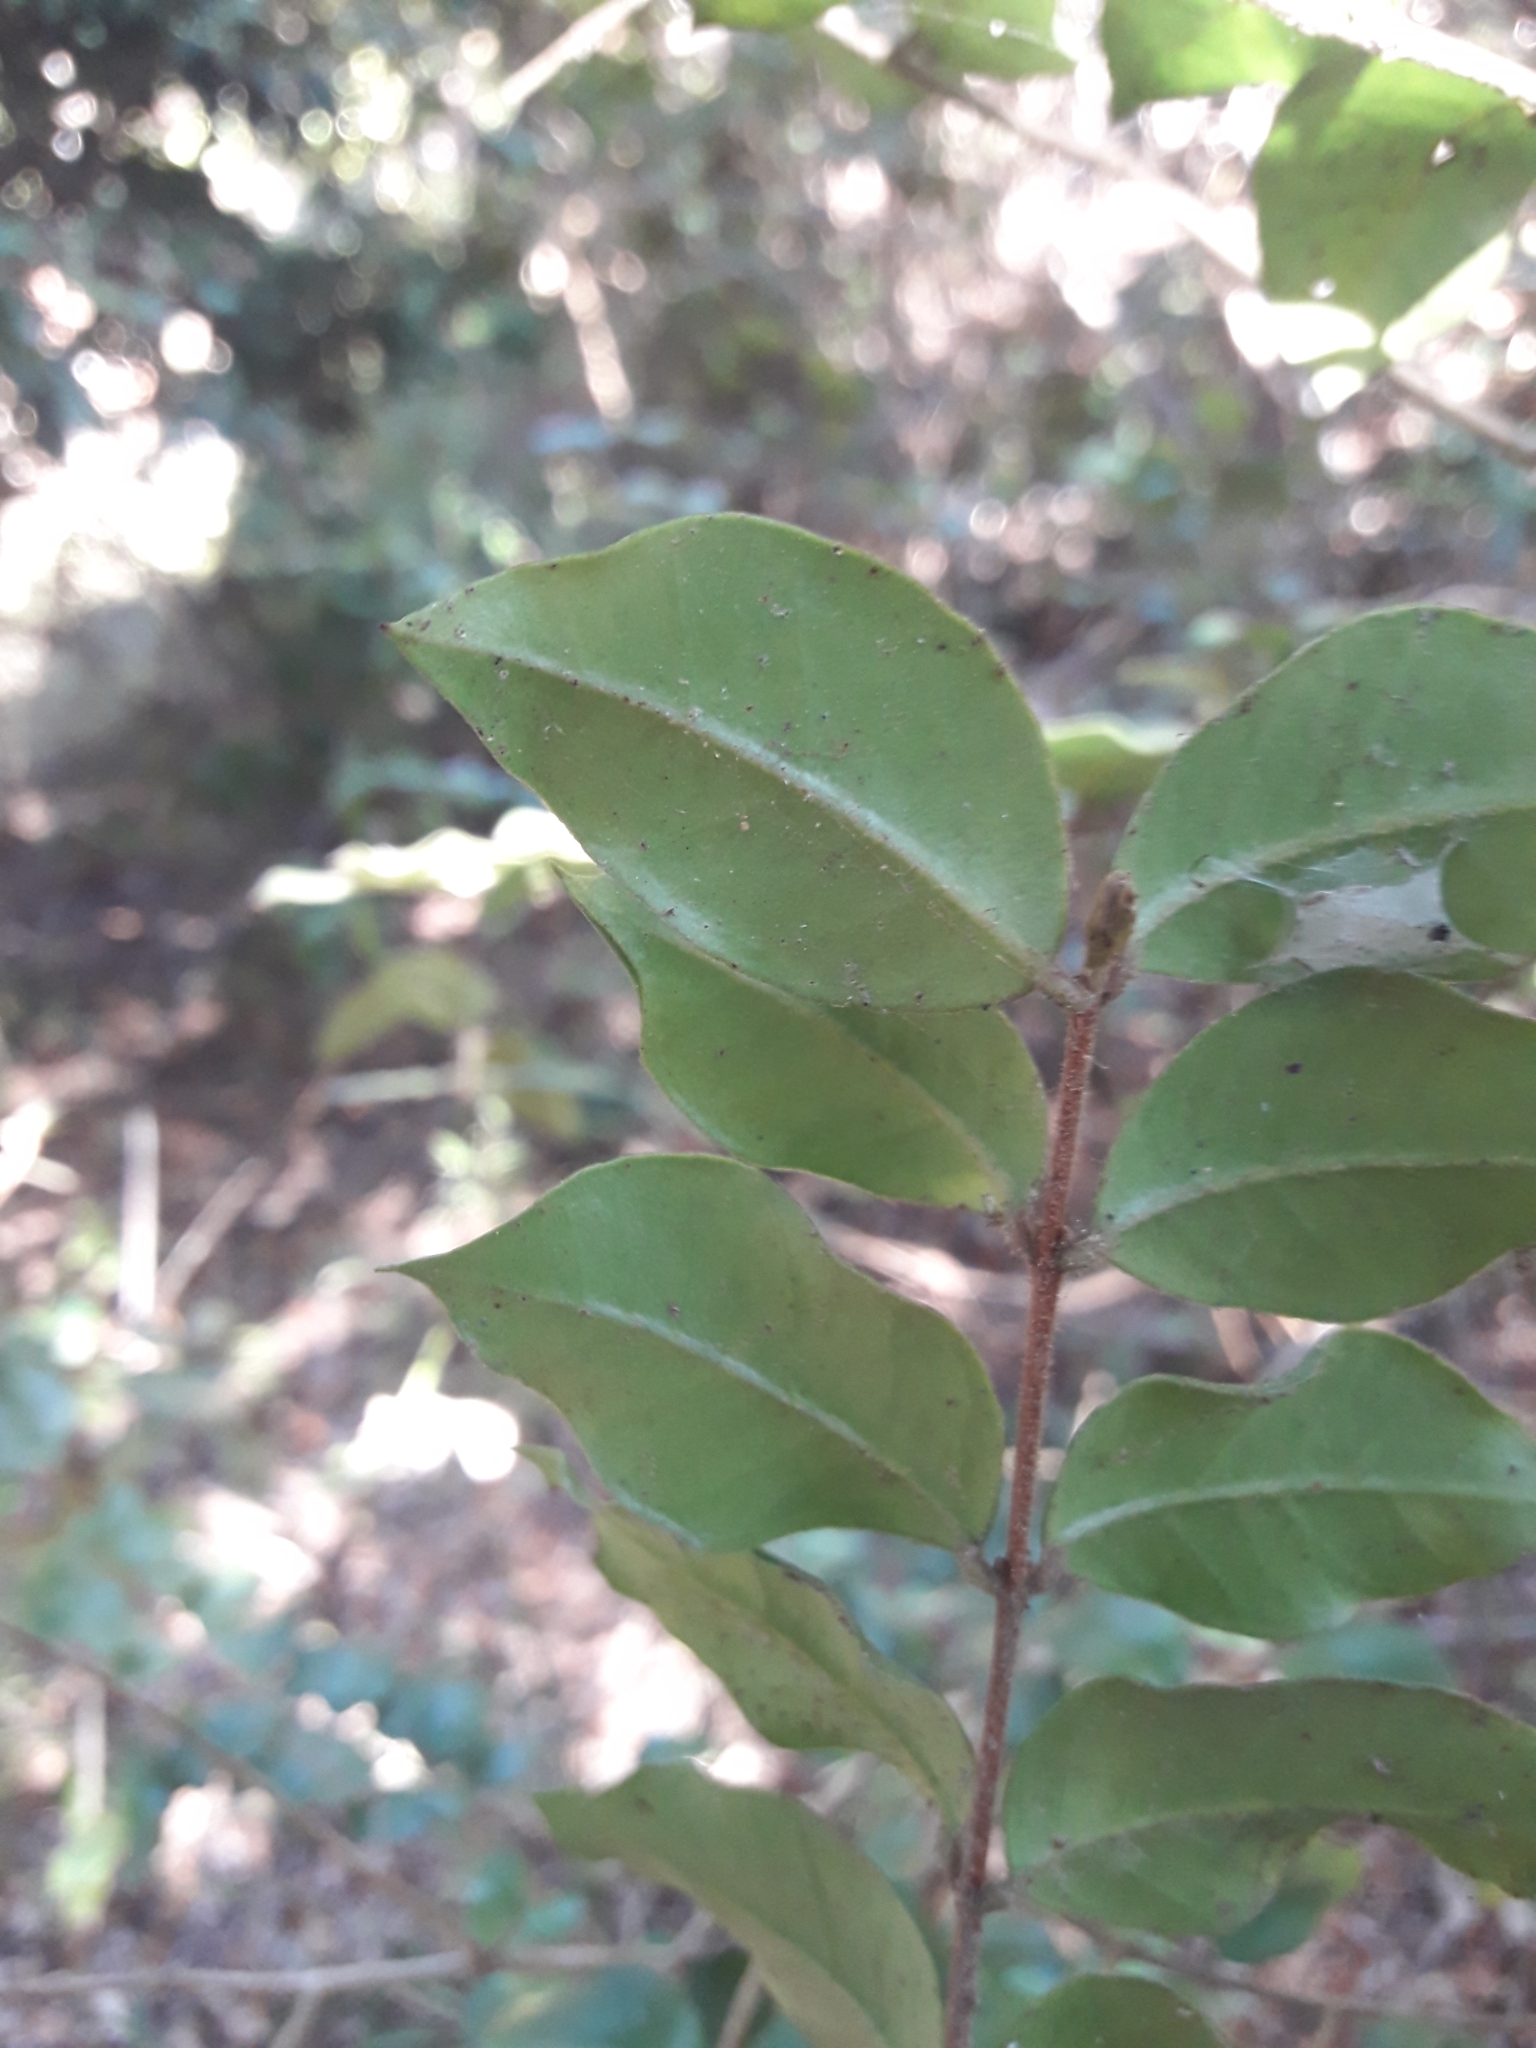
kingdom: Plantae
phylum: Tracheophyta
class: Magnoliopsida
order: Myrtales
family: Myrtaceae
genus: Luma
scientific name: Luma apiculata
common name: Chilean myrtle
